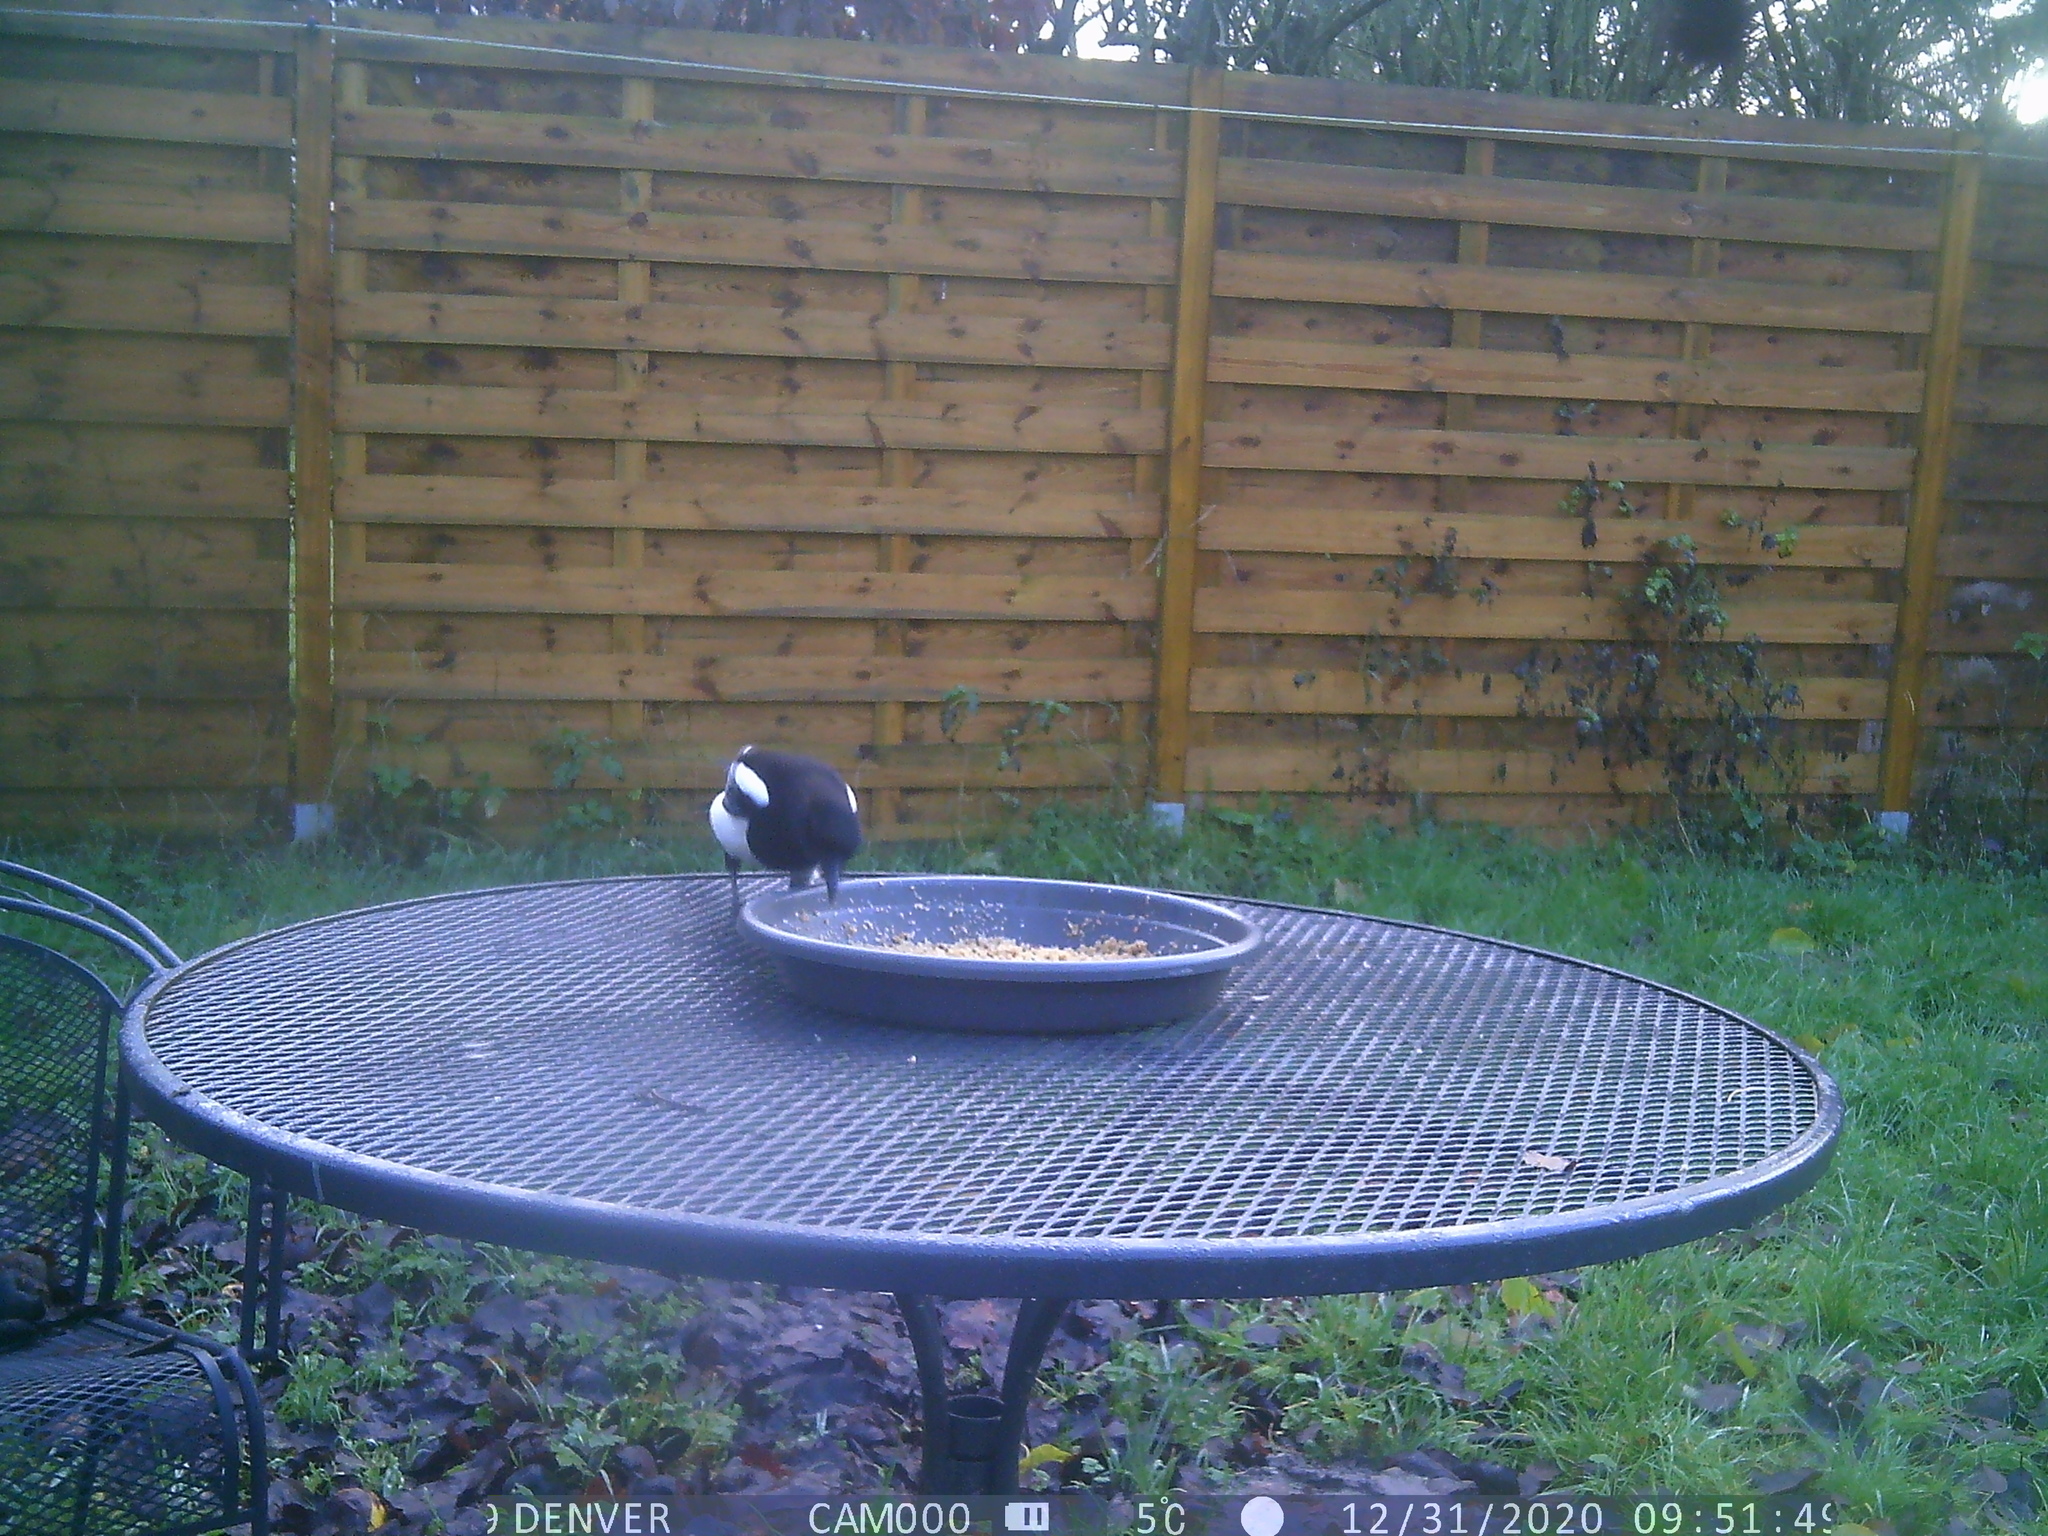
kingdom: Animalia
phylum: Chordata
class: Aves
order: Passeriformes
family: Corvidae
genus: Pica
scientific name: Pica pica
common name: Eurasian magpie
